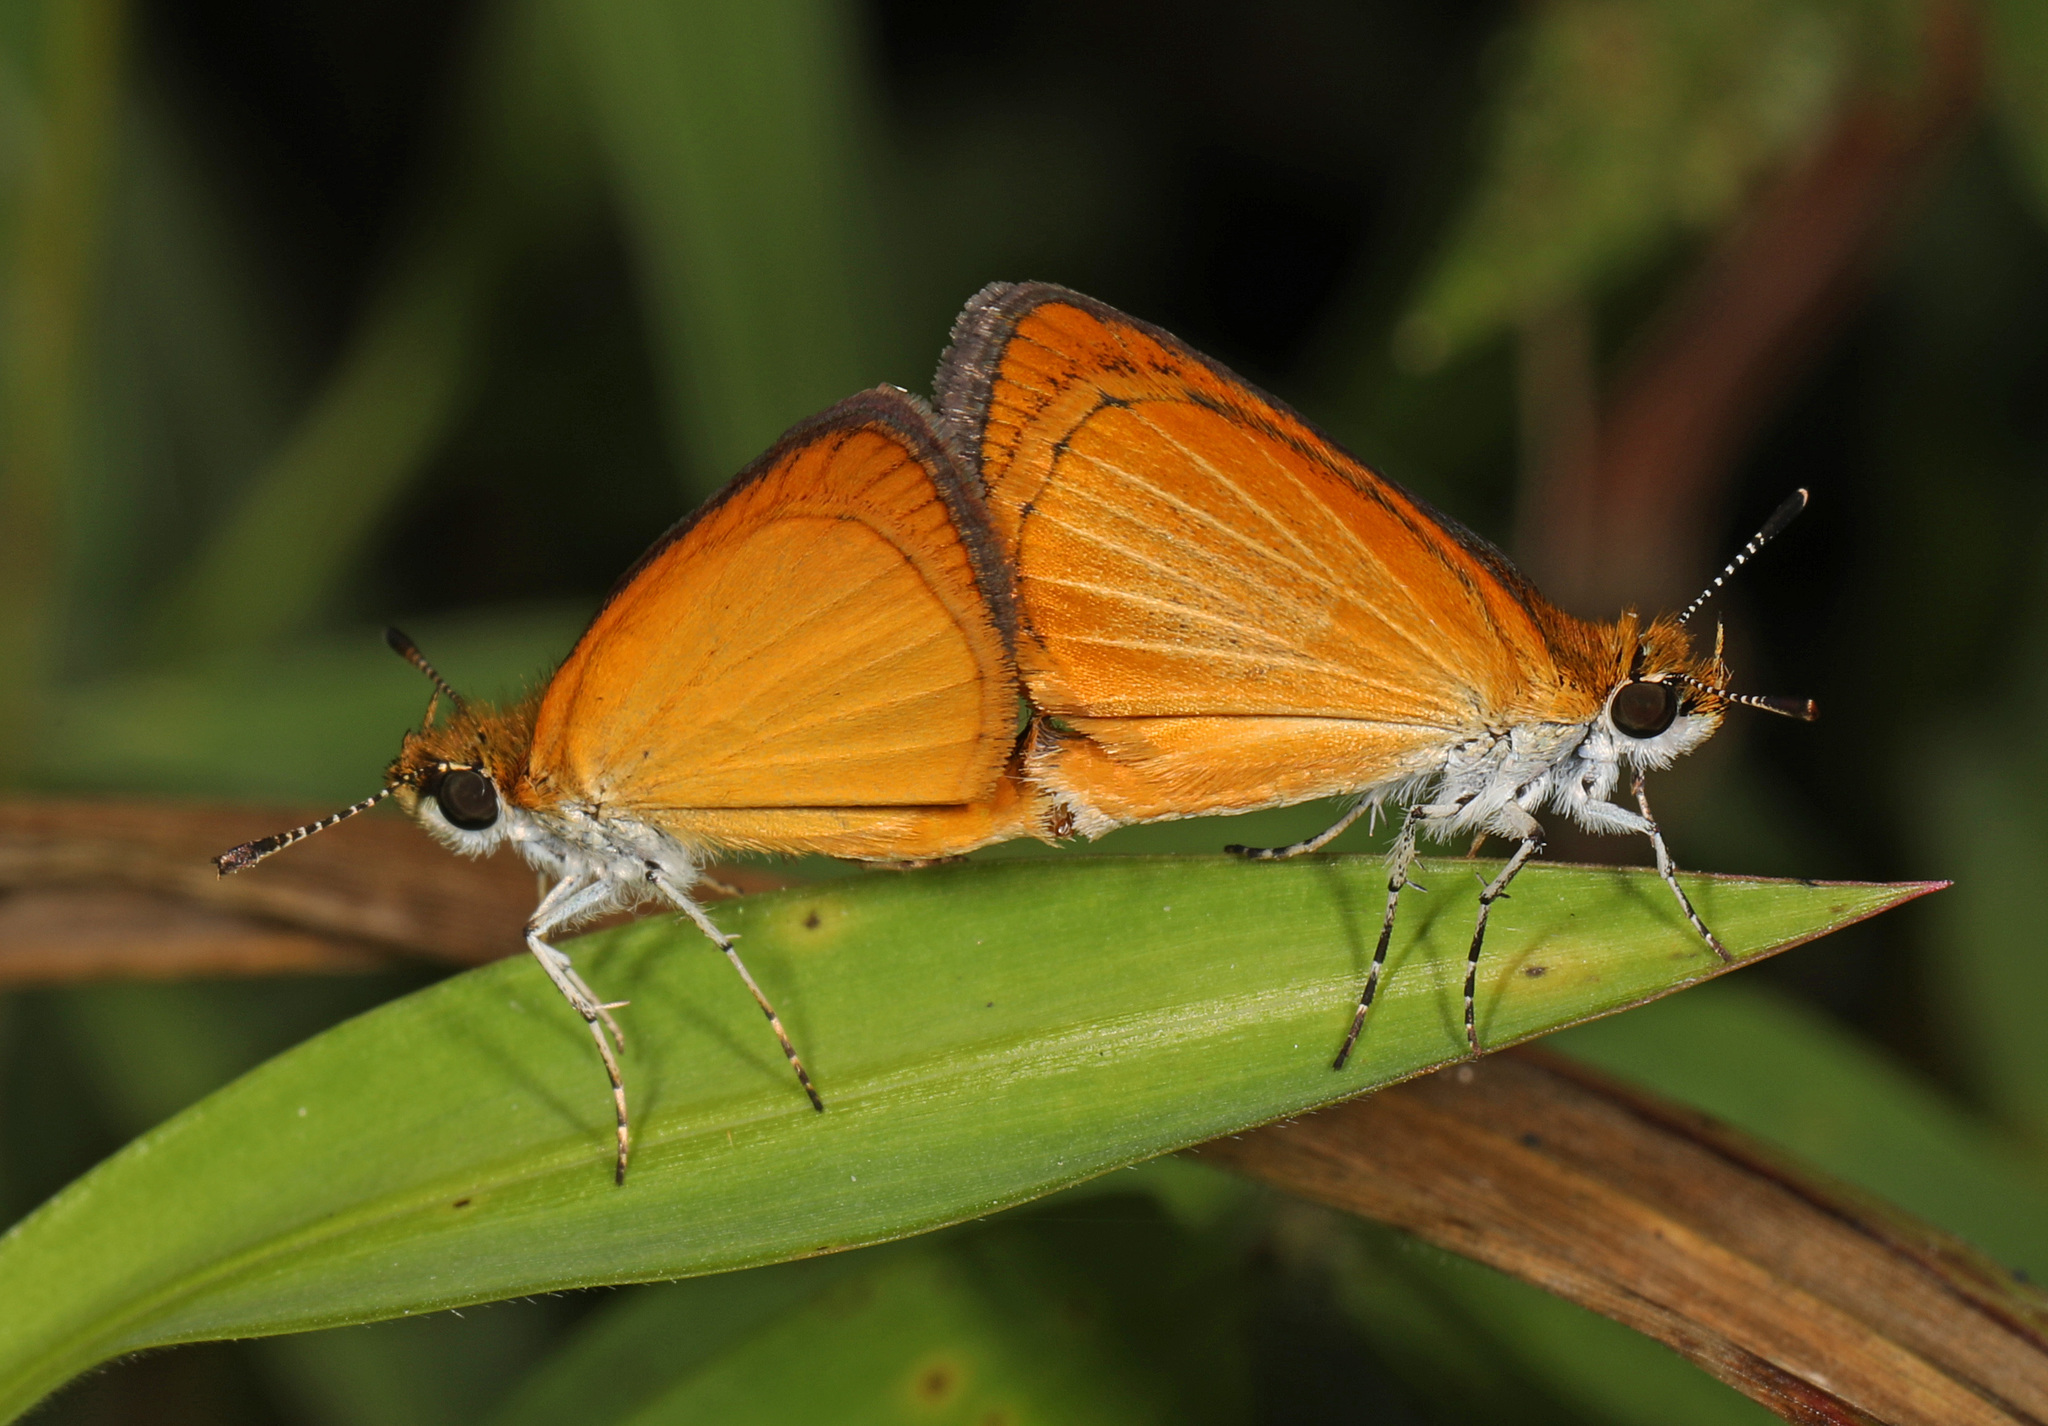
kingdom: Animalia
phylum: Arthropoda
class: Insecta
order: Lepidoptera
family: Hesperiidae
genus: Ancyloxypha
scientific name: Ancyloxypha numitor
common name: Least skipper
